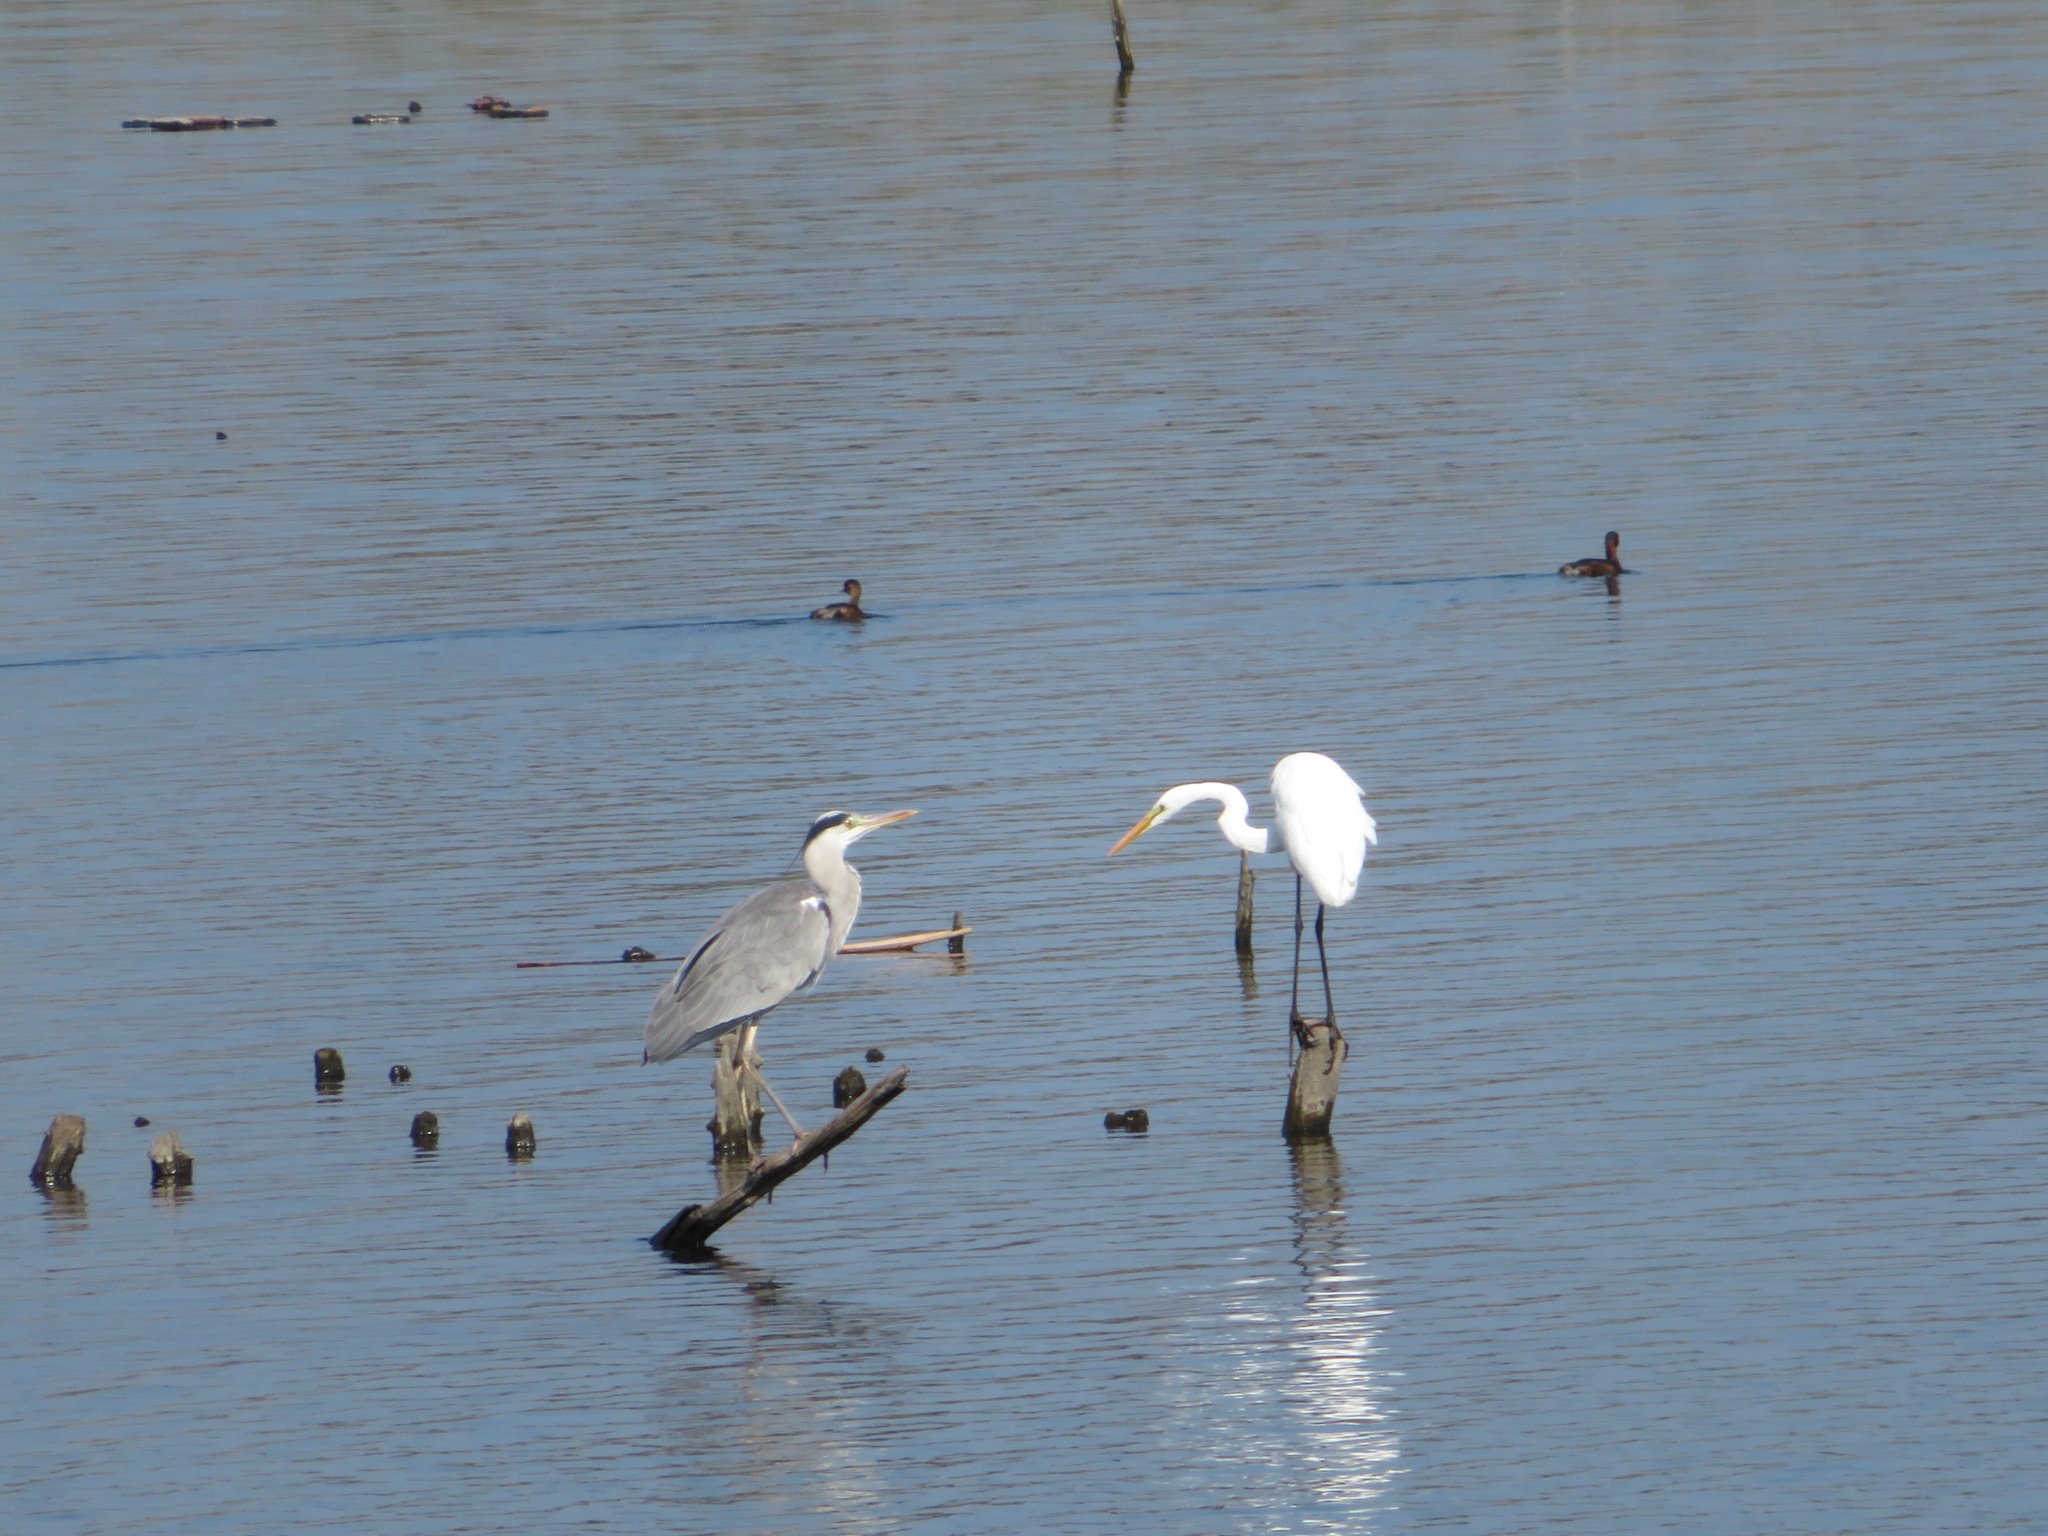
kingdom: Animalia
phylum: Chordata
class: Aves
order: Pelecaniformes
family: Ardeidae
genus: Ardea
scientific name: Ardea alba
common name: Great egret
